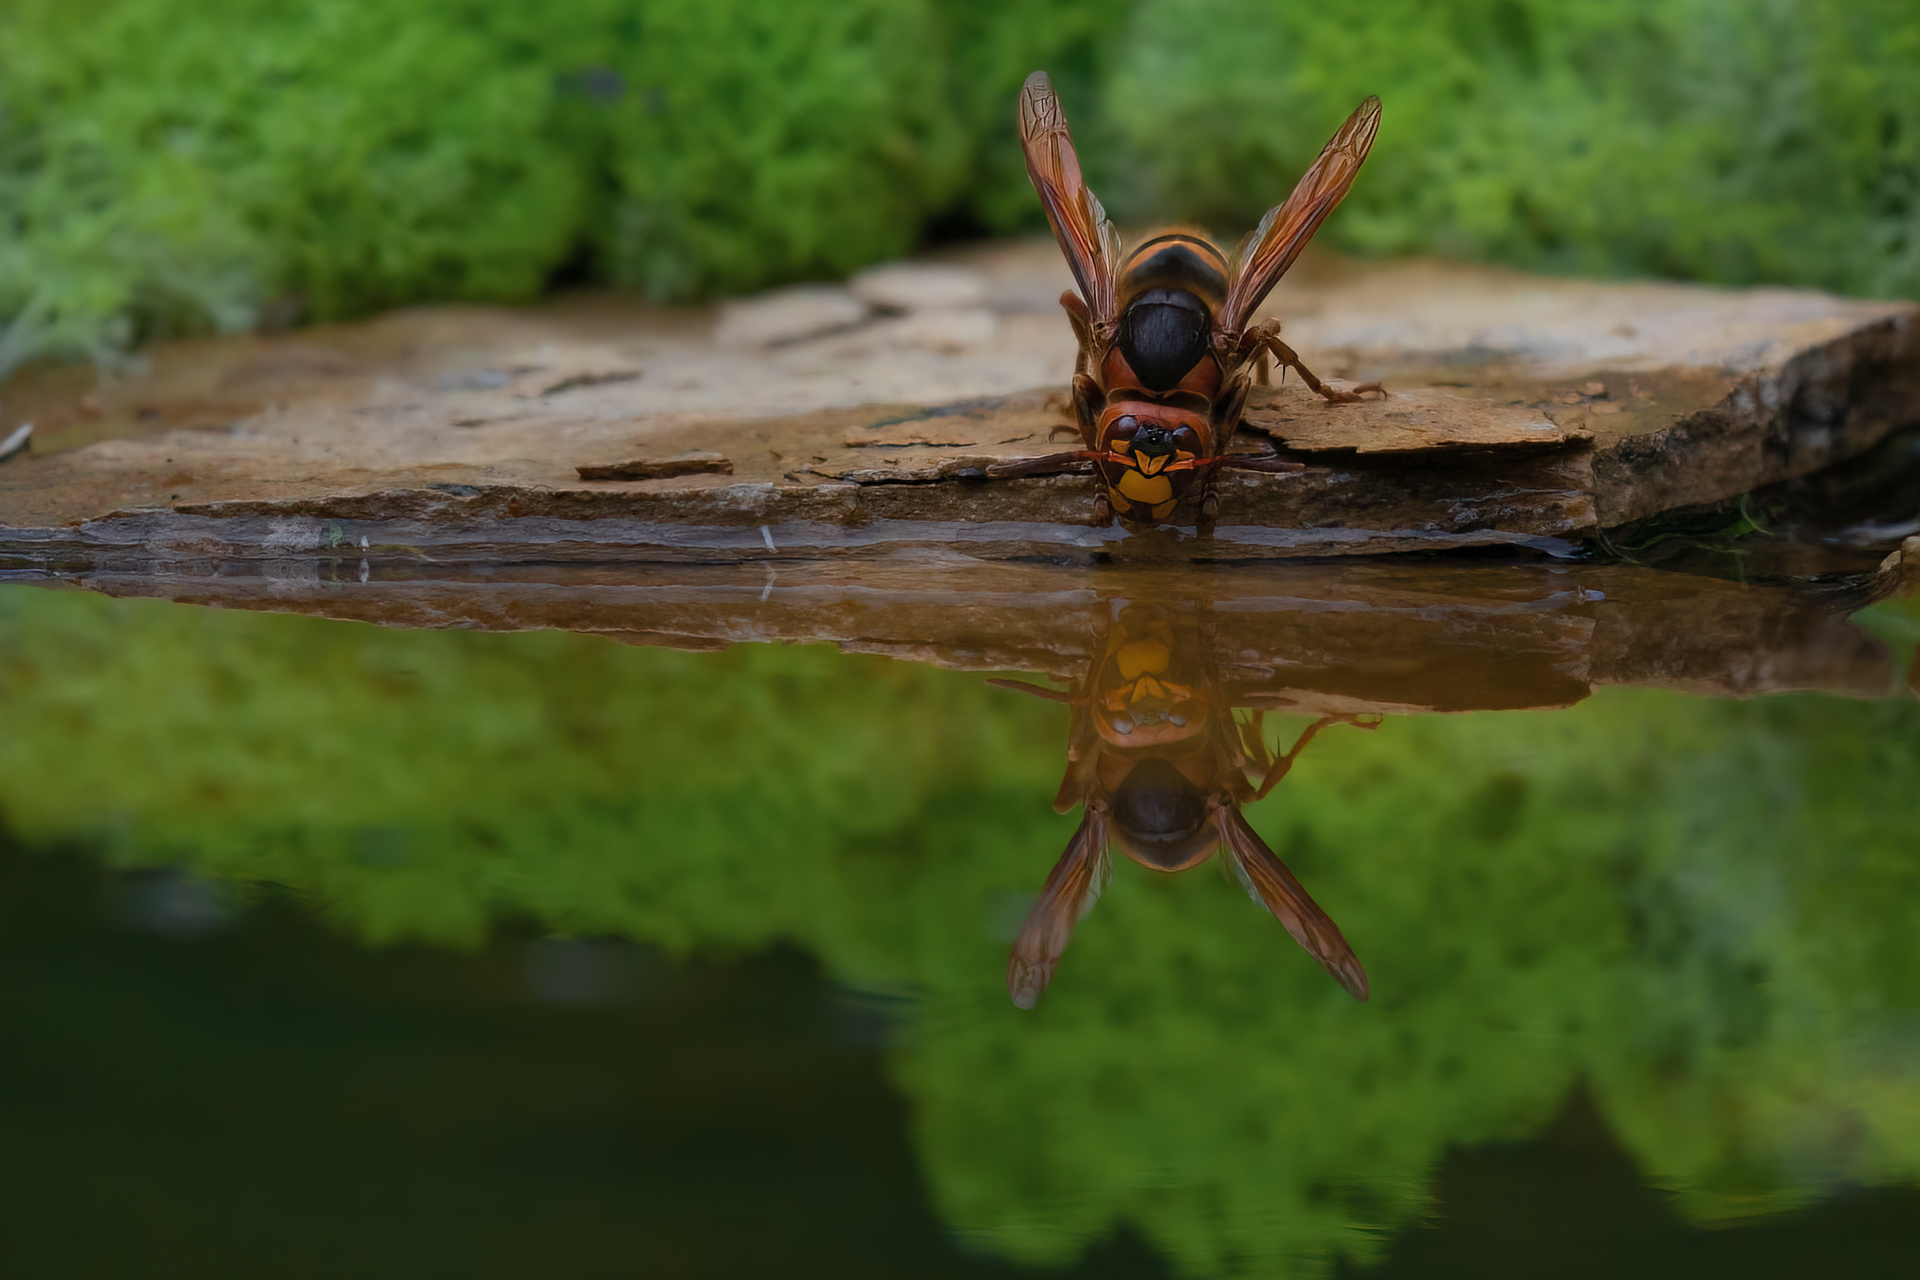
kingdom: Animalia
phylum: Arthropoda
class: Insecta
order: Hymenoptera
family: Vespidae
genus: Vespa
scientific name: Vespa crabro
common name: Hornet
